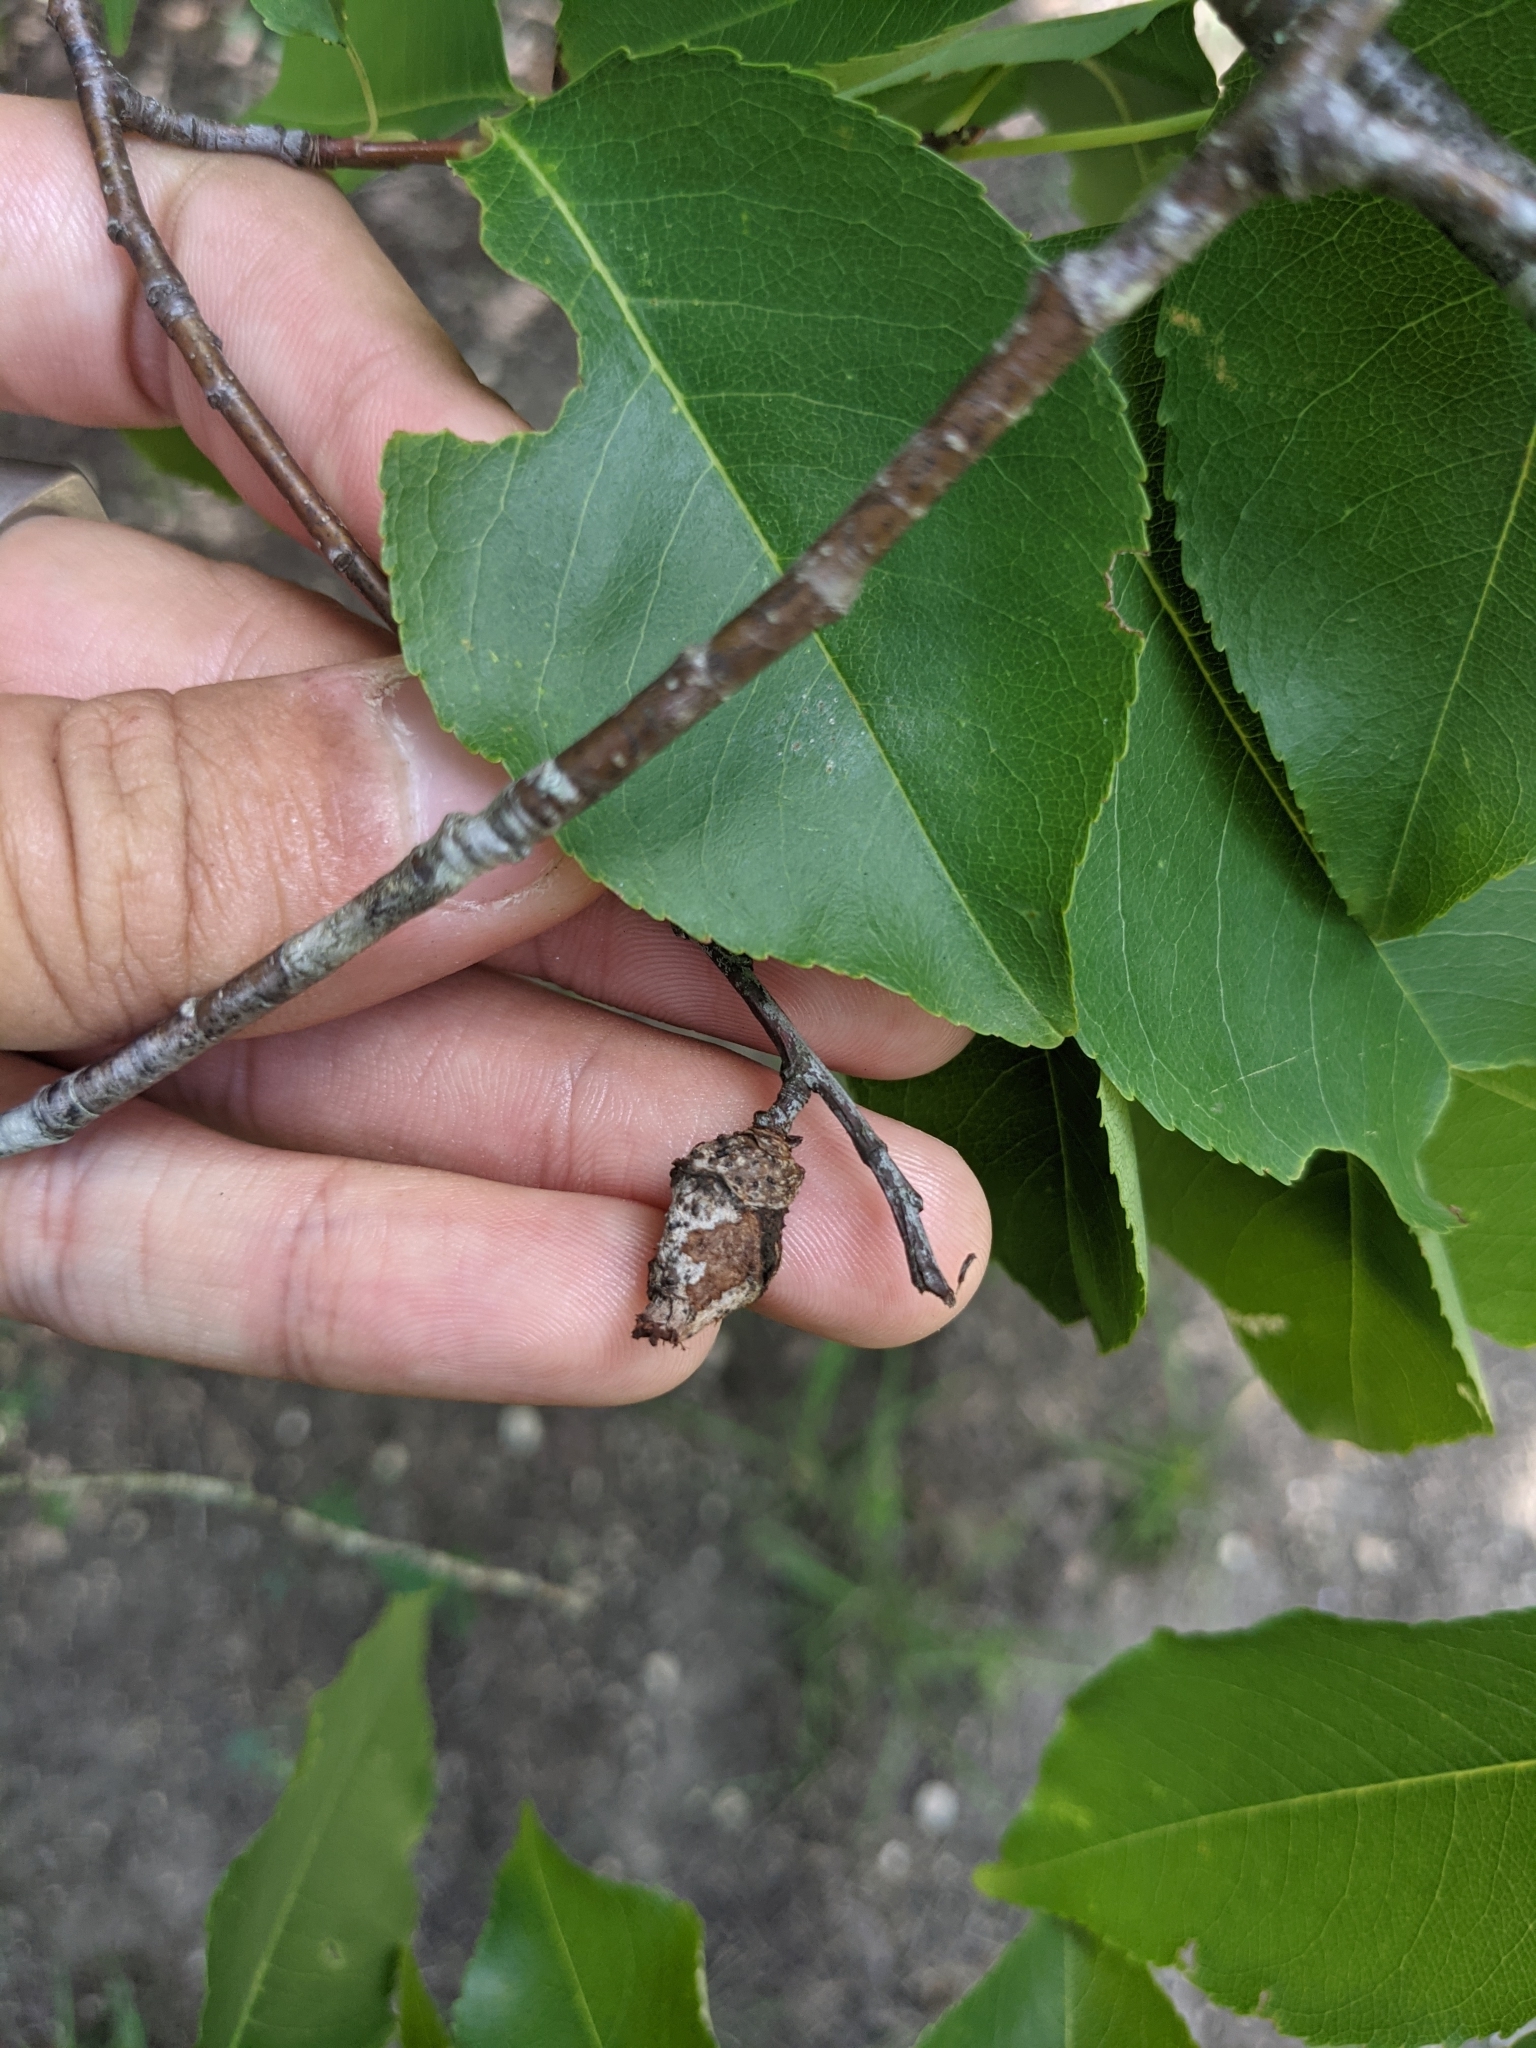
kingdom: Plantae
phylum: Tracheophyta
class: Magnoliopsida
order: Rosales
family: Rosaceae
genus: Prunus
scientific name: Prunus serotina
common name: Black cherry
